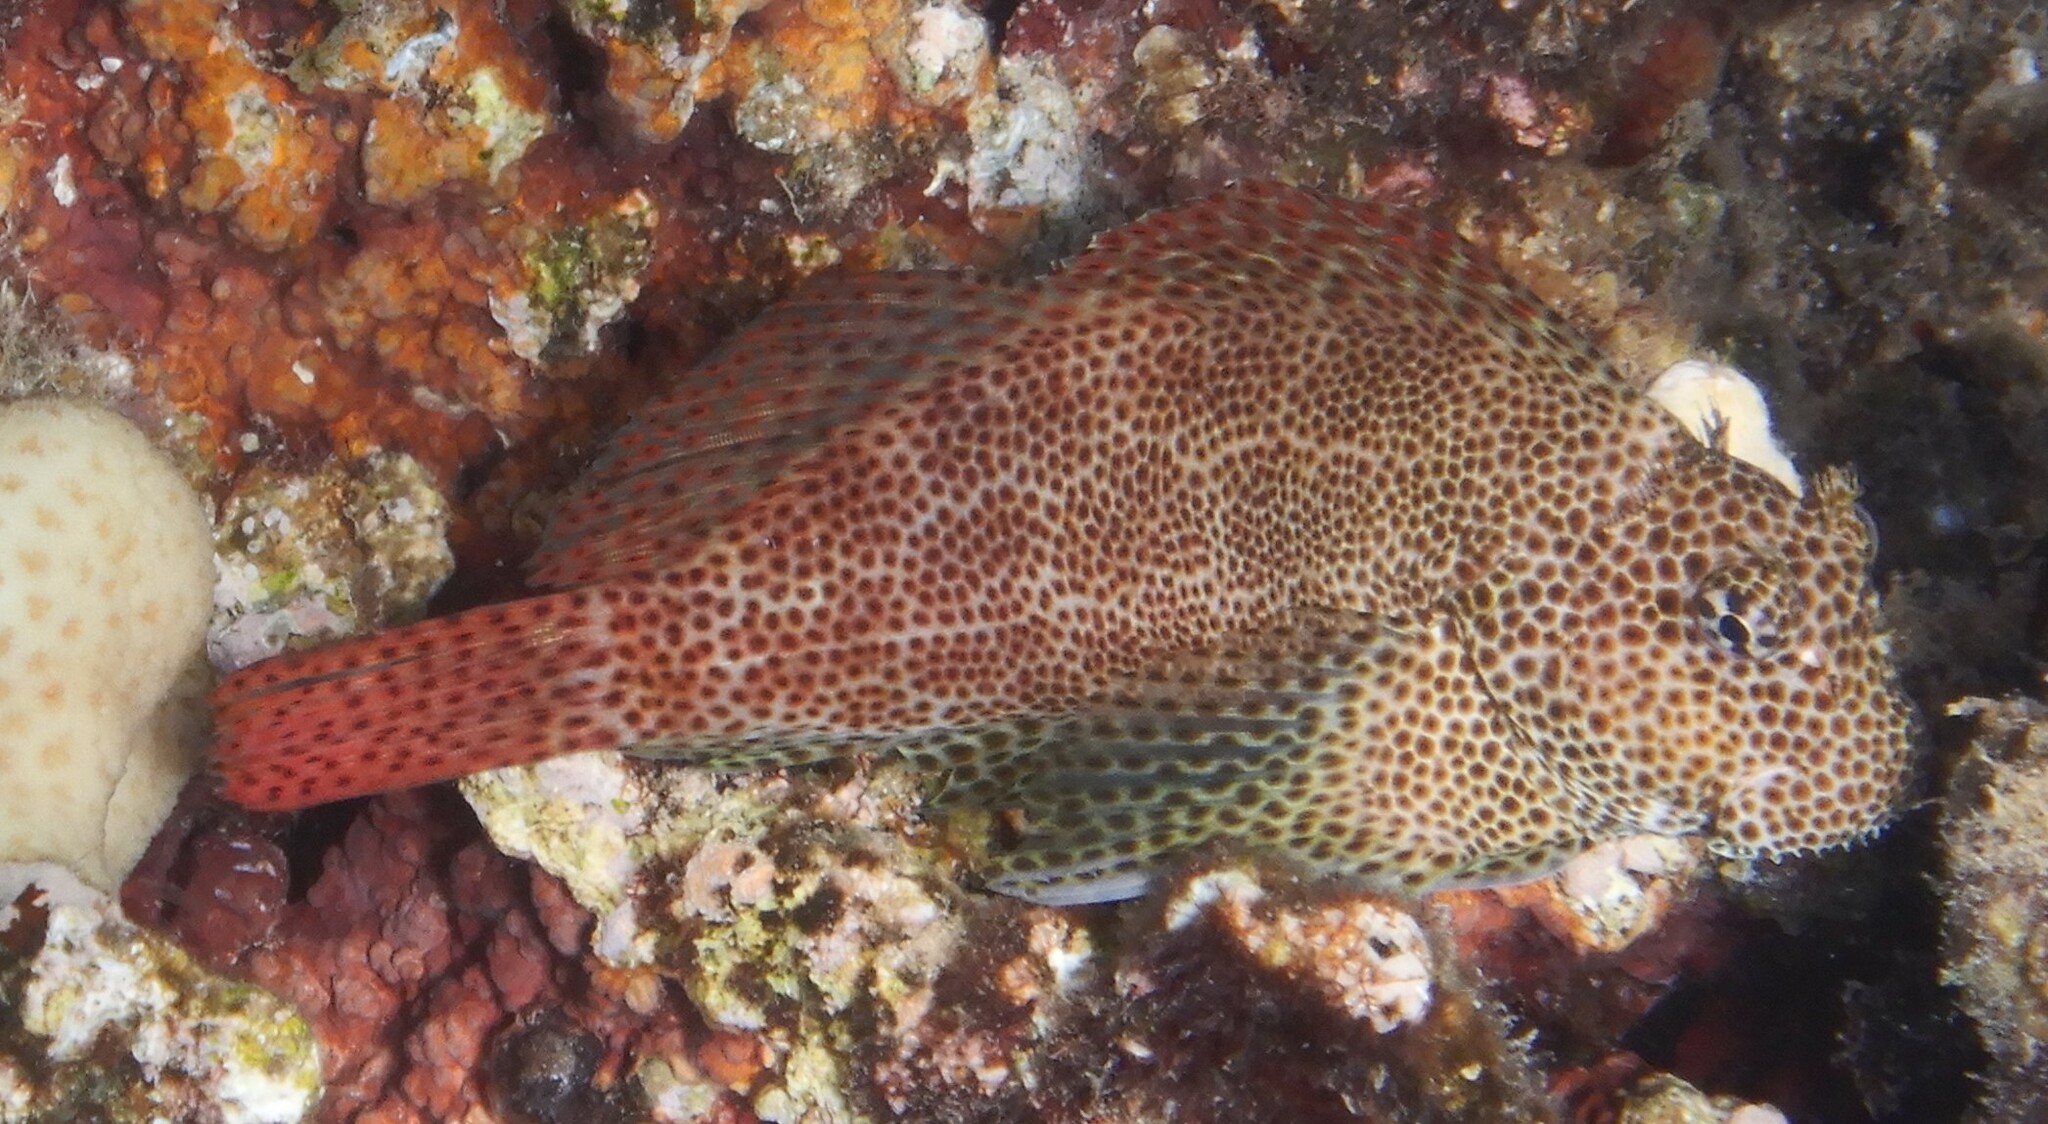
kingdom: Animalia
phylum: Chordata
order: Perciformes
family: Blenniidae
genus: Exallias
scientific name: Exallias brevis
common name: Leopard blenny
